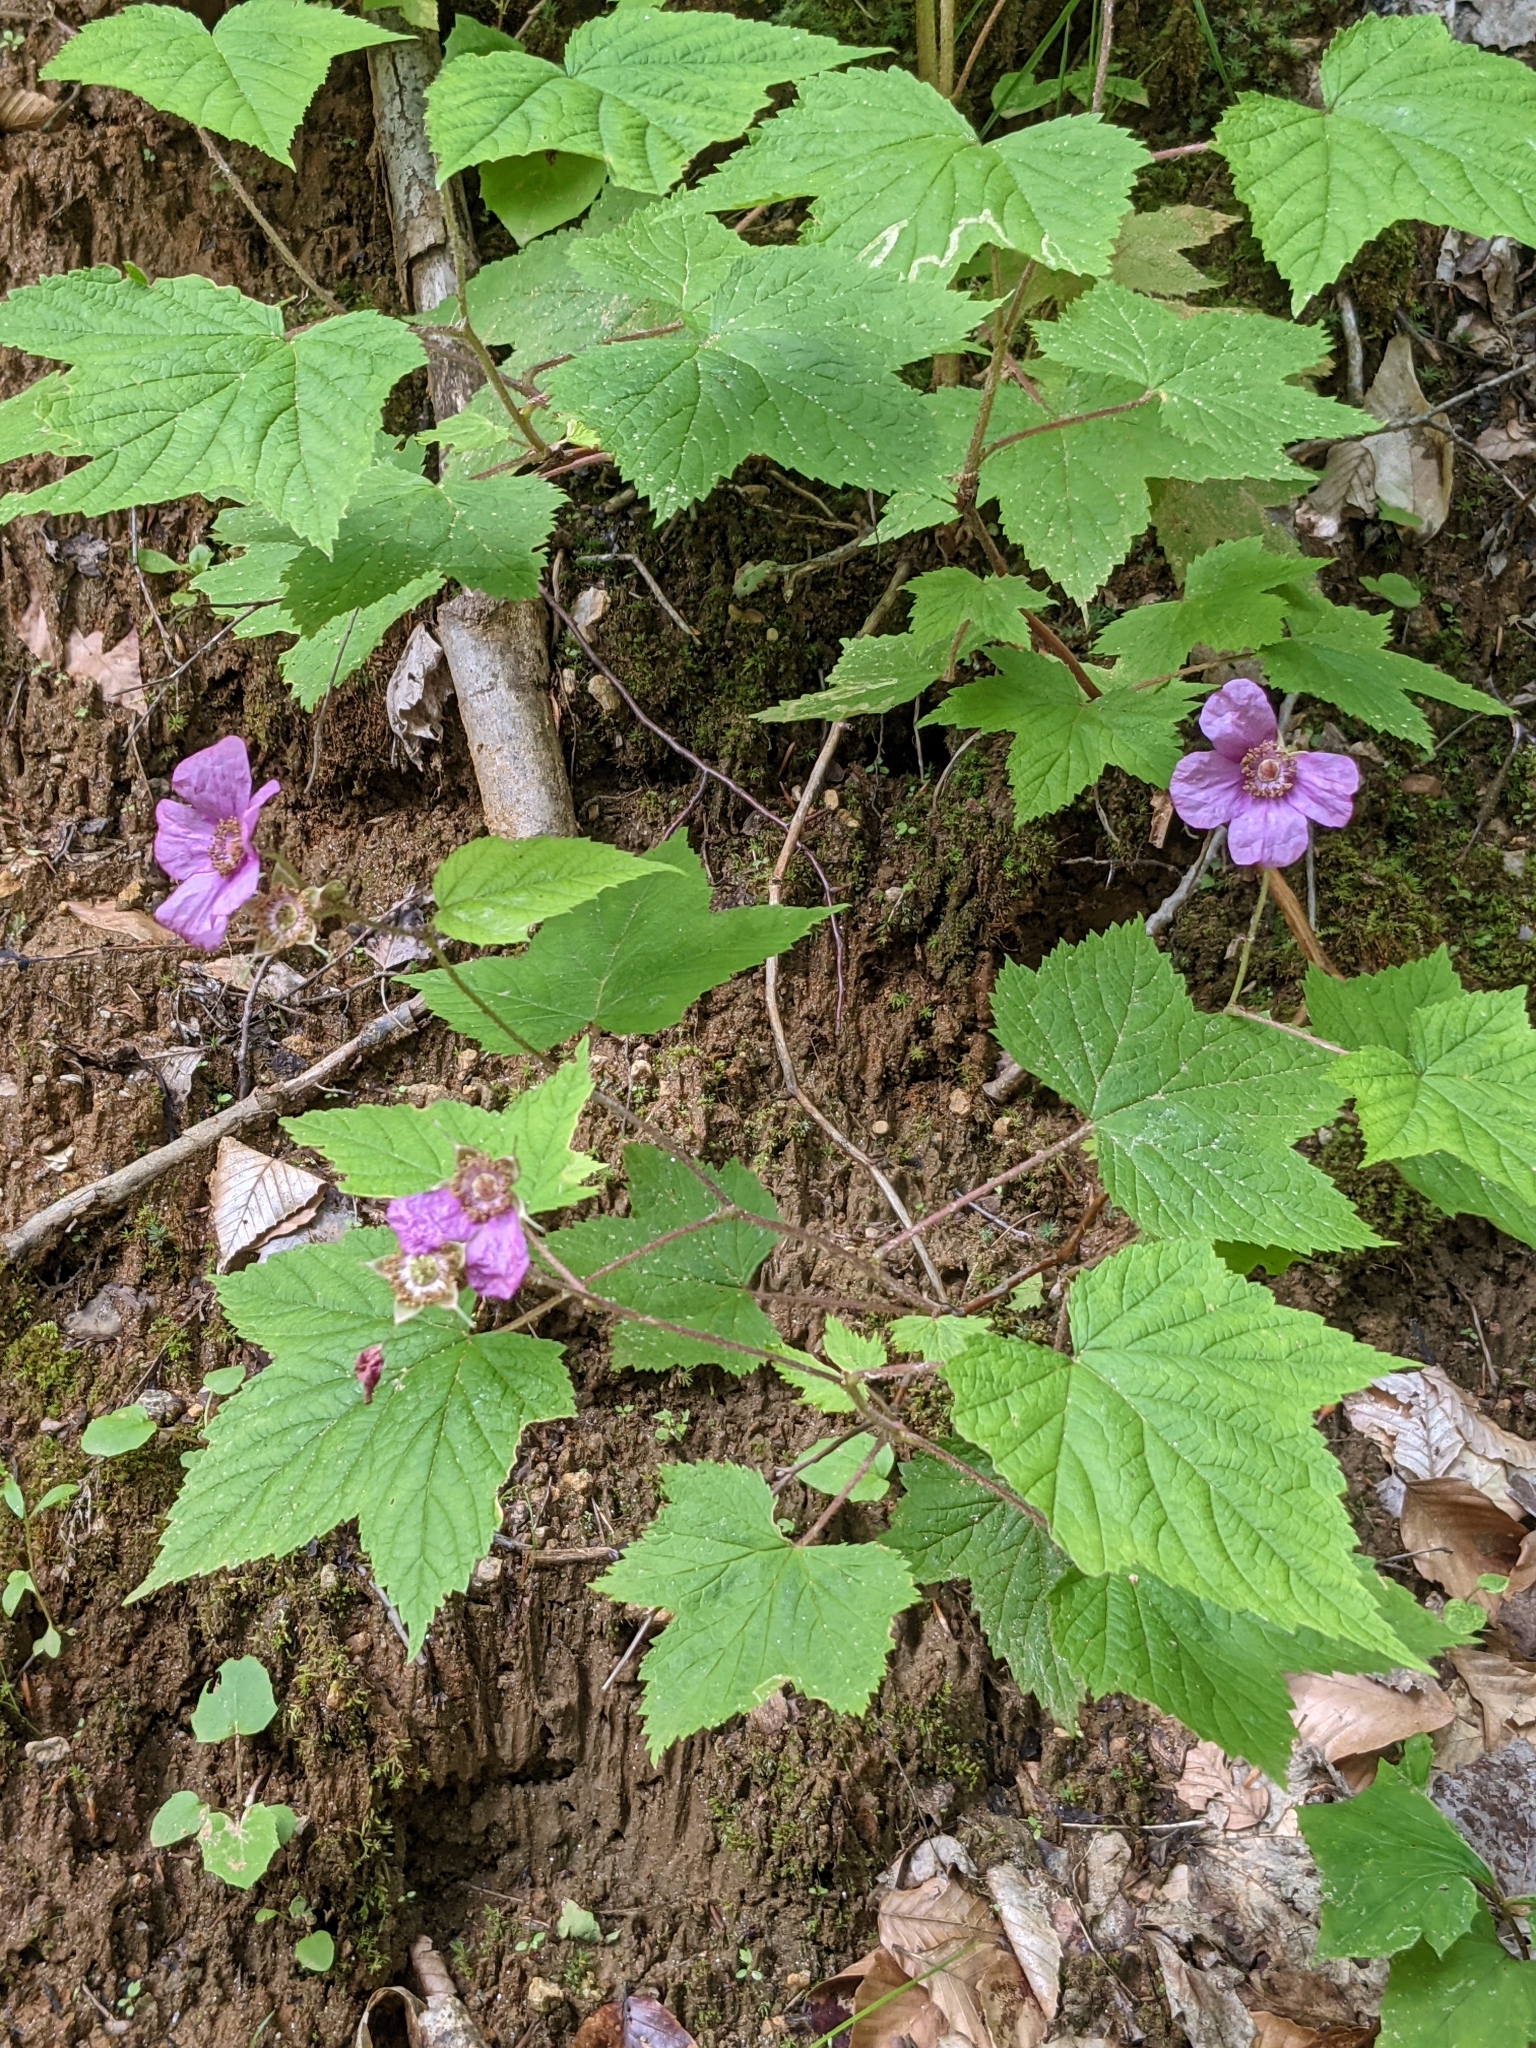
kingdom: Plantae
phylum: Tracheophyta
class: Magnoliopsida
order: Rosales
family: Rosaceae
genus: Rubus
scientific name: Rubus odoratus
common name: Purple-flowered raspberry
